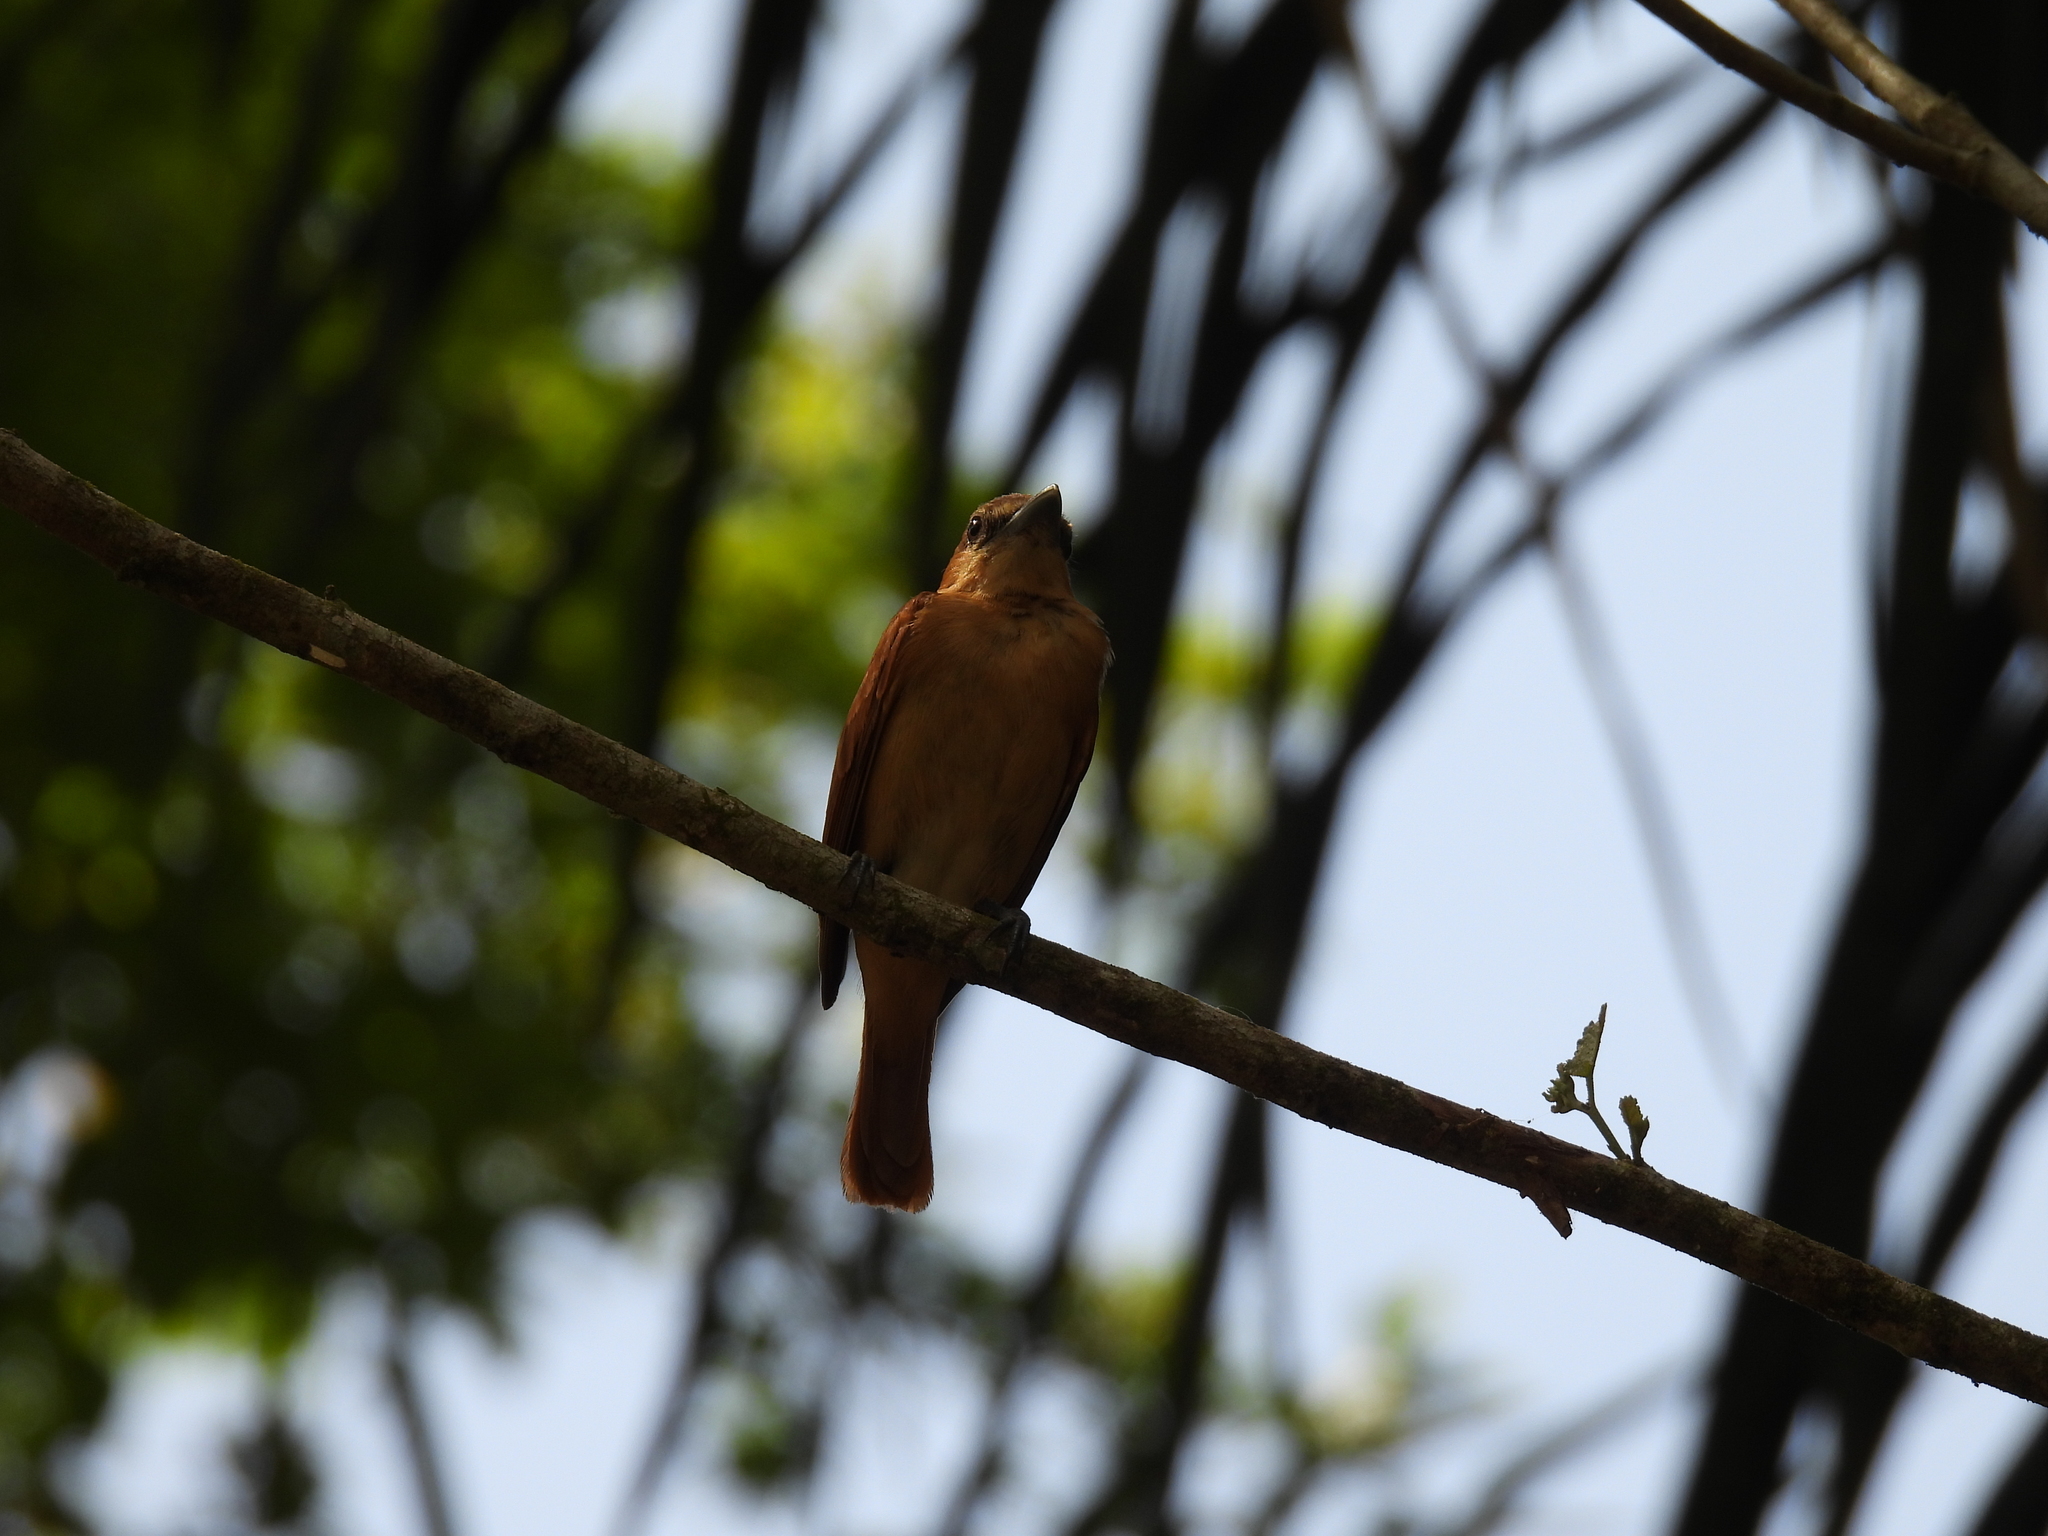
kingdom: Animalia
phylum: Chordata
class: Aves
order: Passeriformes
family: Cotingidae
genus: Pachyramphus
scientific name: Pachyramphus cinnamomeus
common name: Cinnamon becard
